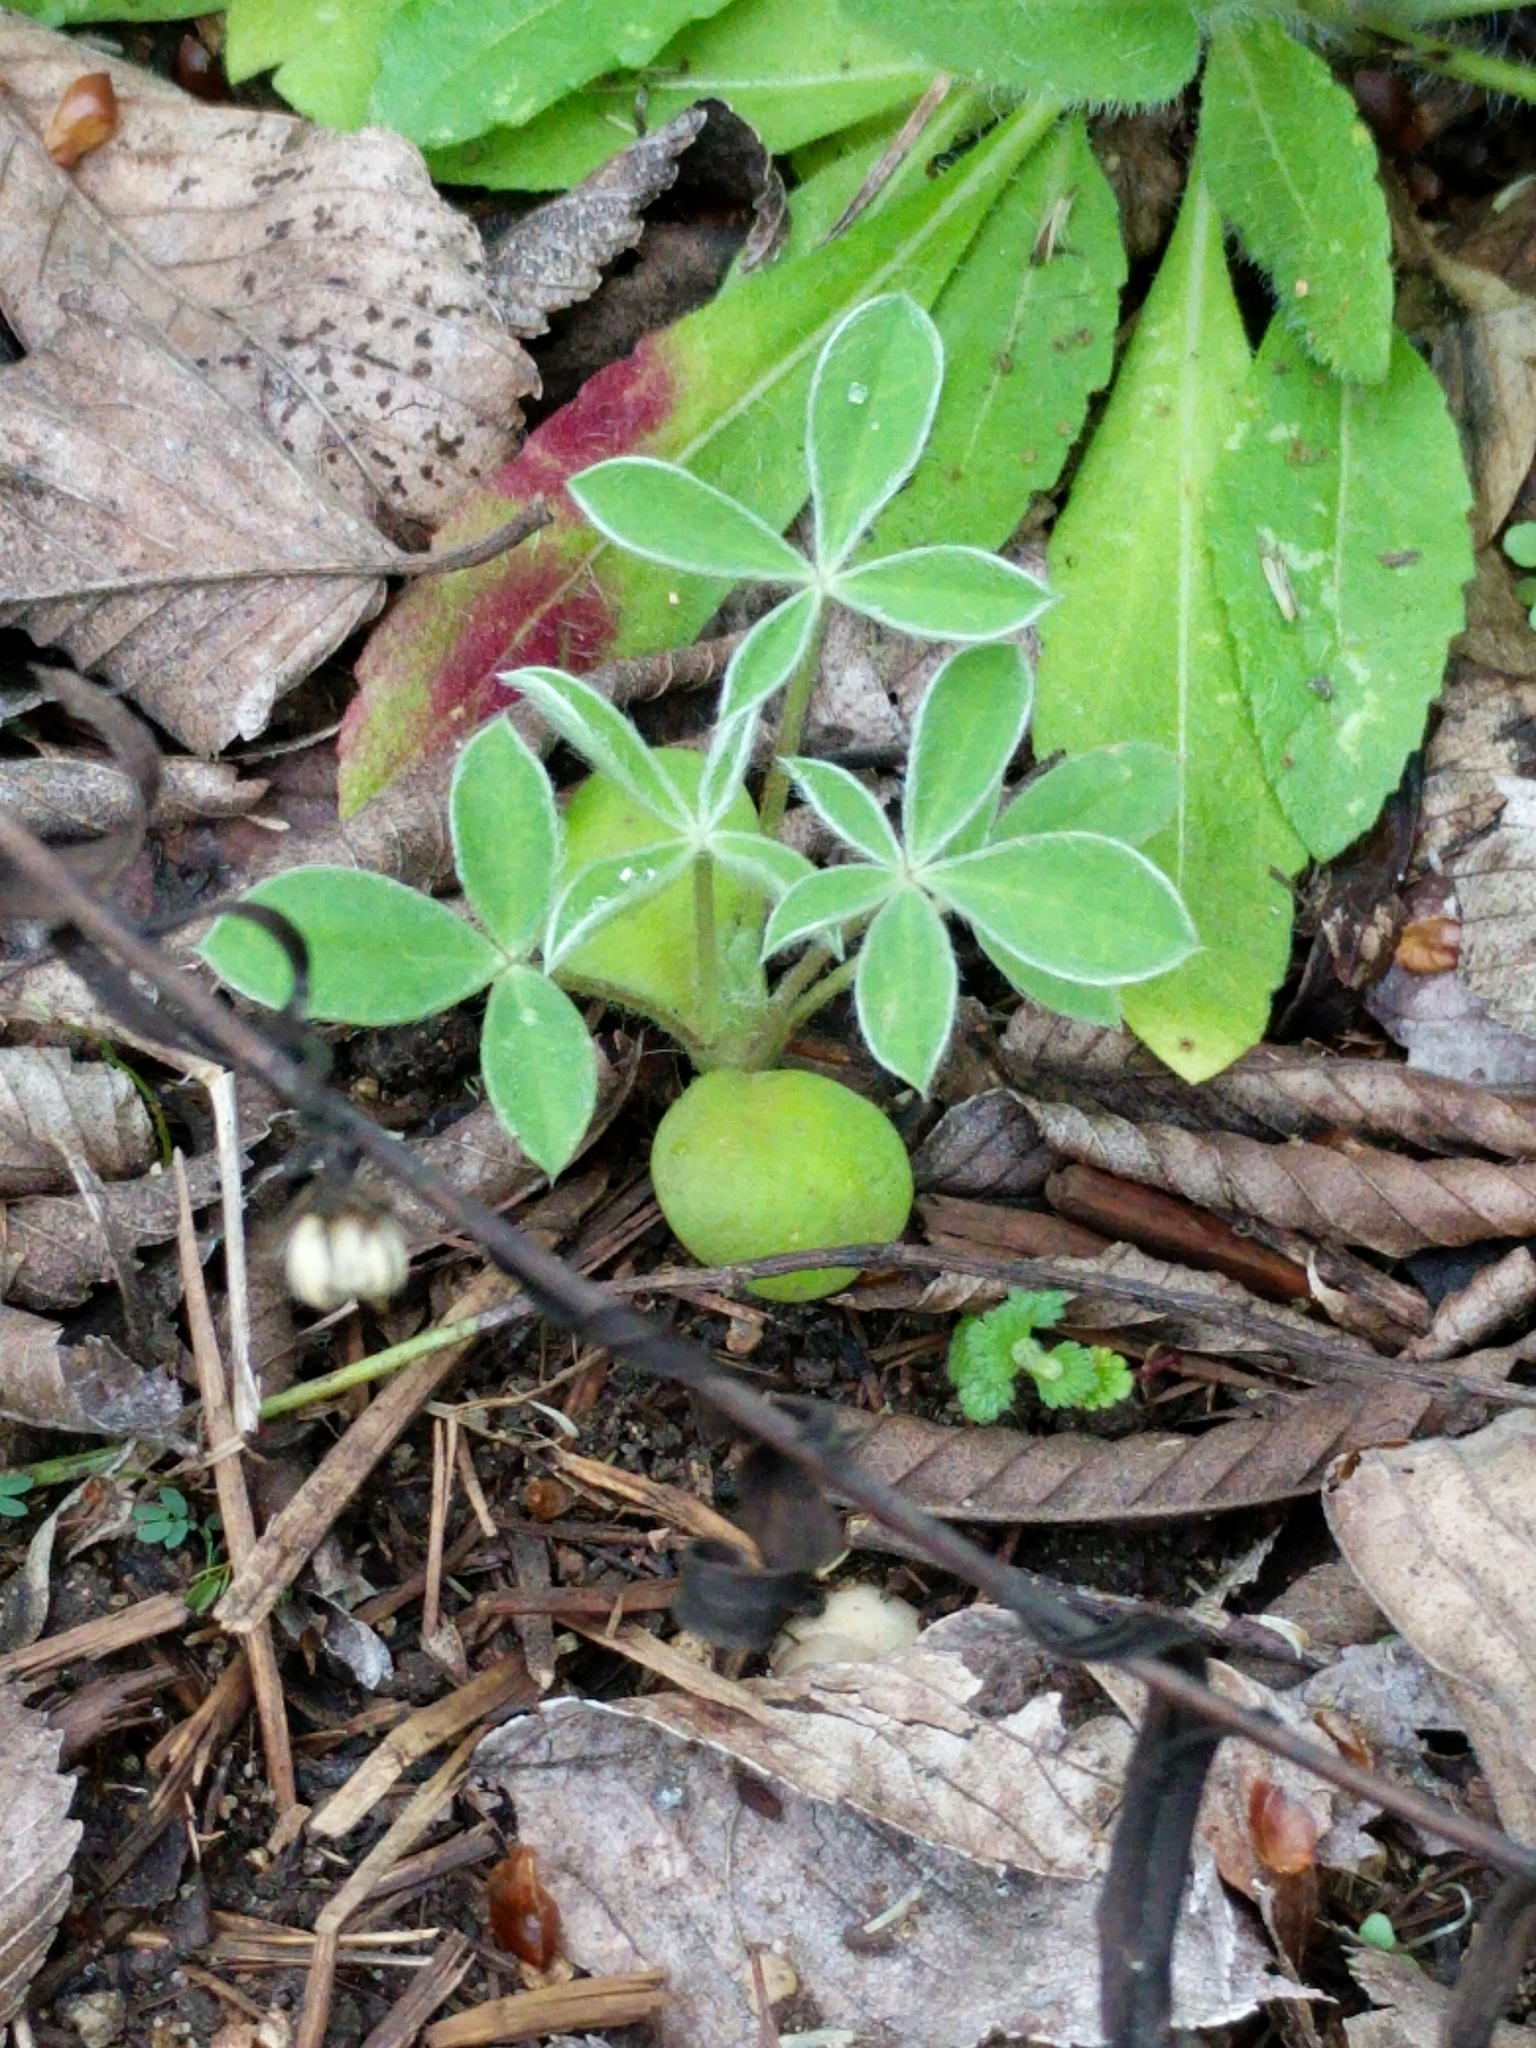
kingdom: Plantae
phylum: Tracheophyta
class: Magnoliopsida
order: Fabales
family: Fabaceae
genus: Lupinus
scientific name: Lupinus texensis
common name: Texas bluebonnet
